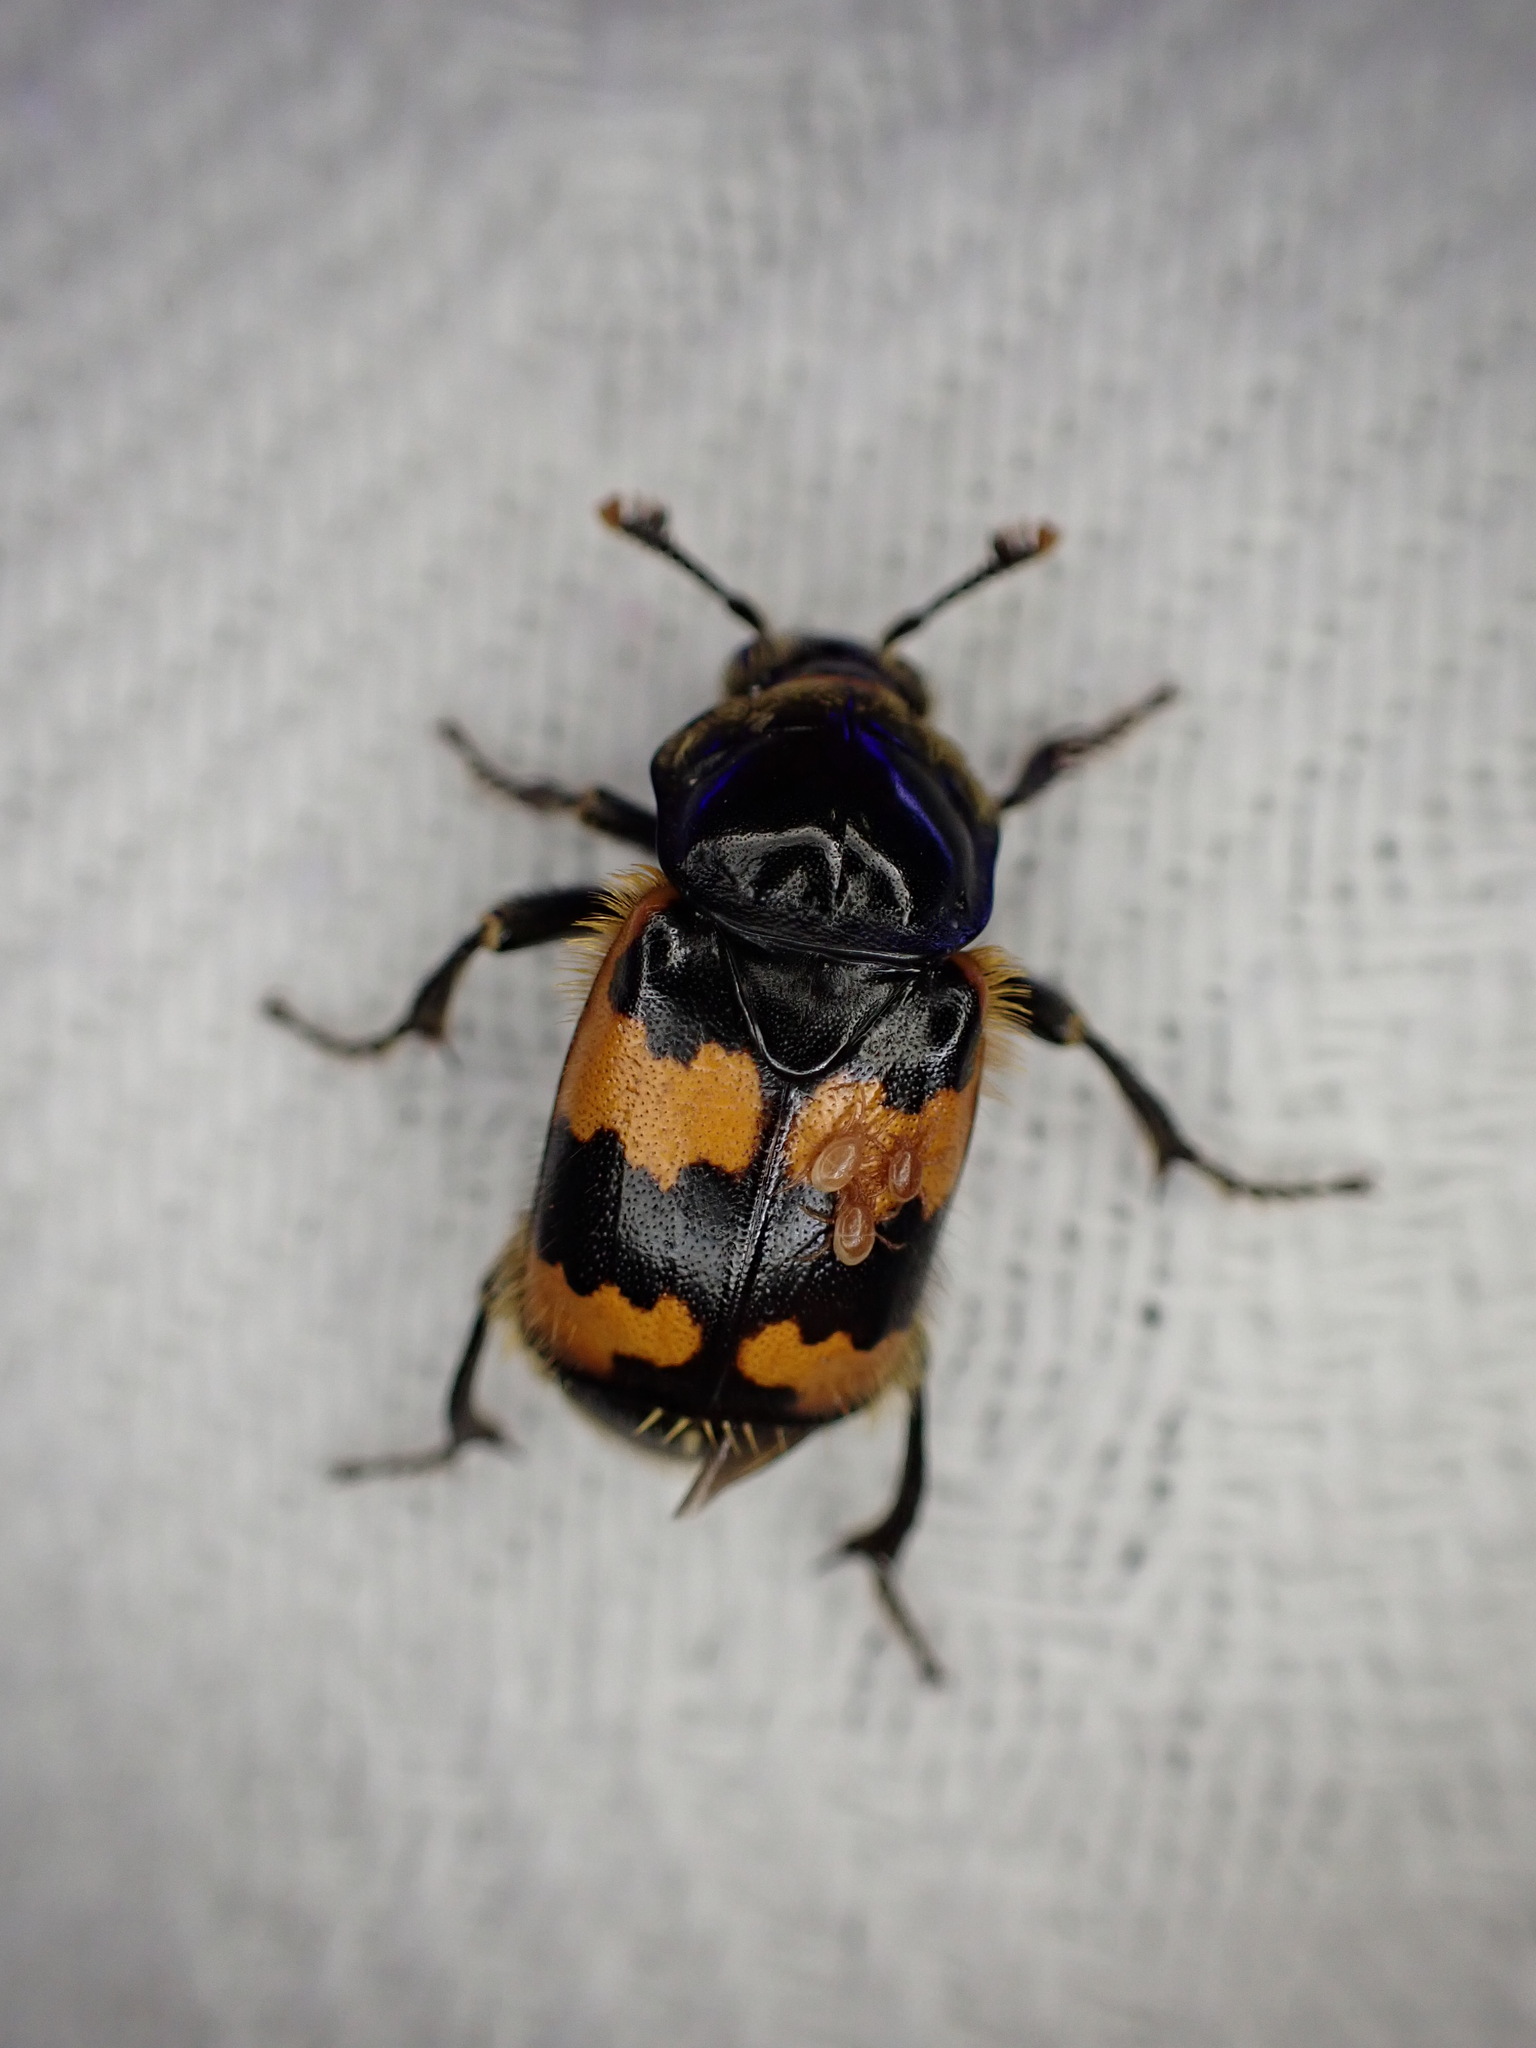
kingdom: Animalia
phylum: Arthropoda
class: Insecta
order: Coleoptera
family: Staphylinidae
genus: Nicrophorus
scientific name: Nicrophorus vespillo
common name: Common burying beetle
